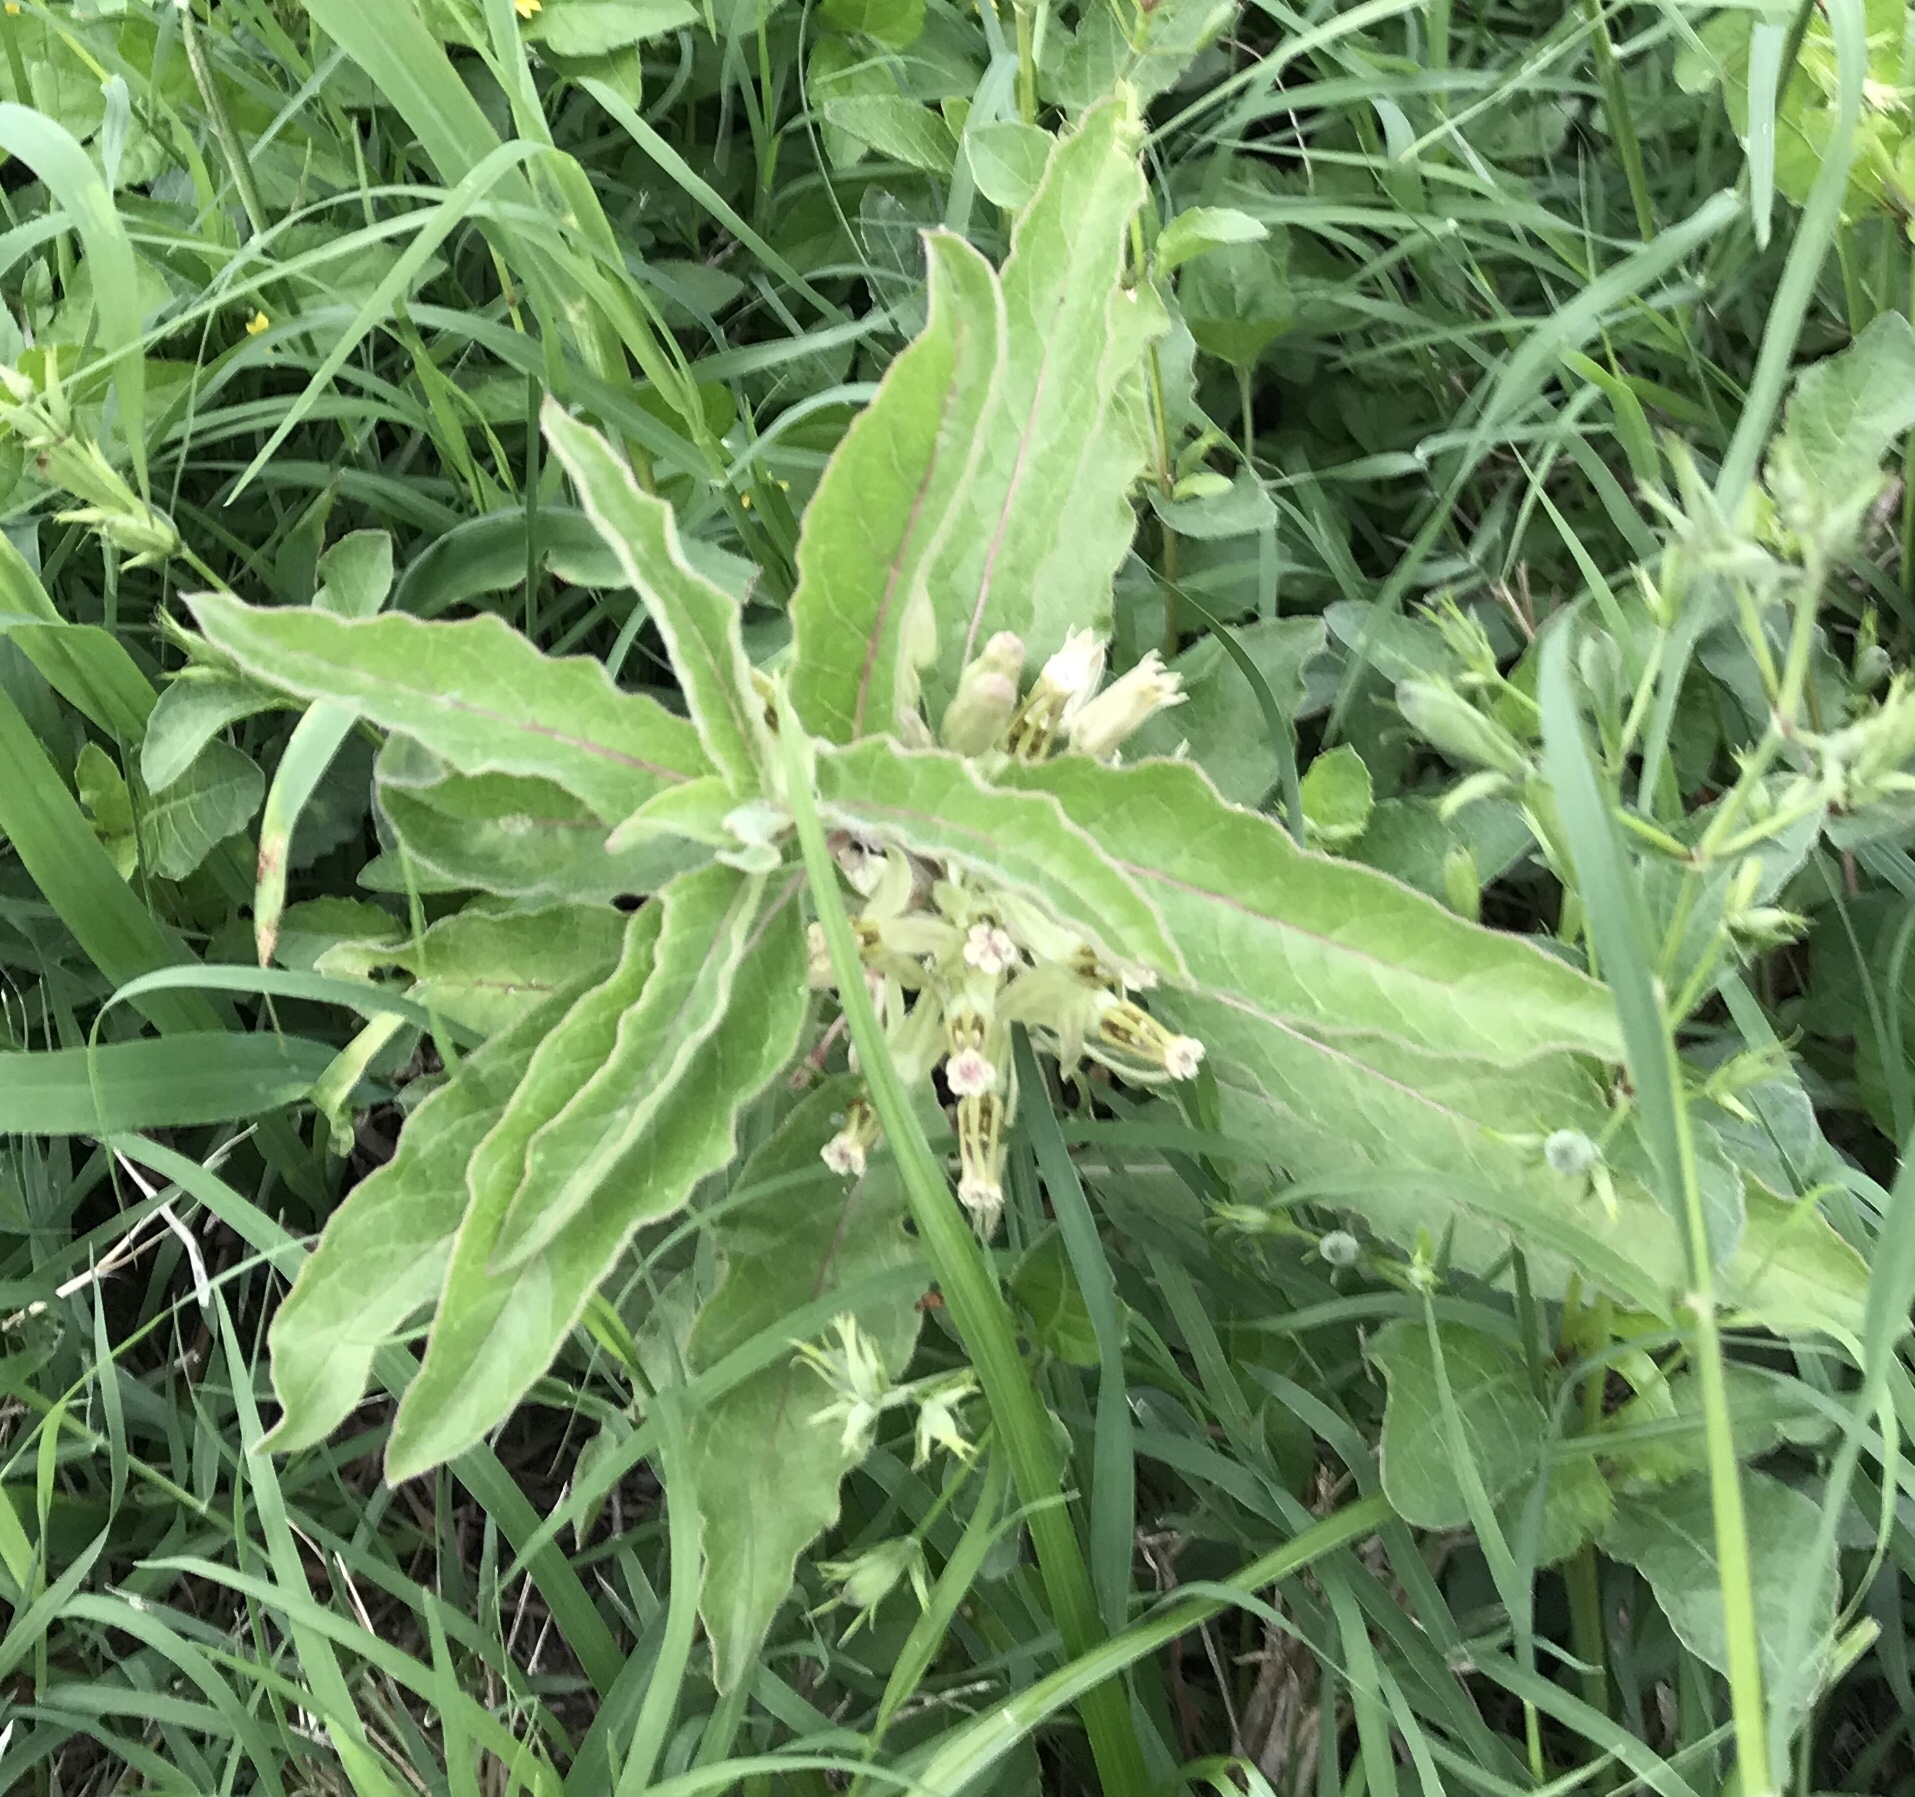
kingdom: Plantae
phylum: Tracheophyta
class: Magnoliopsida
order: Gentianales
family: Apocynaceae
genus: Asclepias
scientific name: Asclepias oenotheroides
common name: Zizotes milkweed
